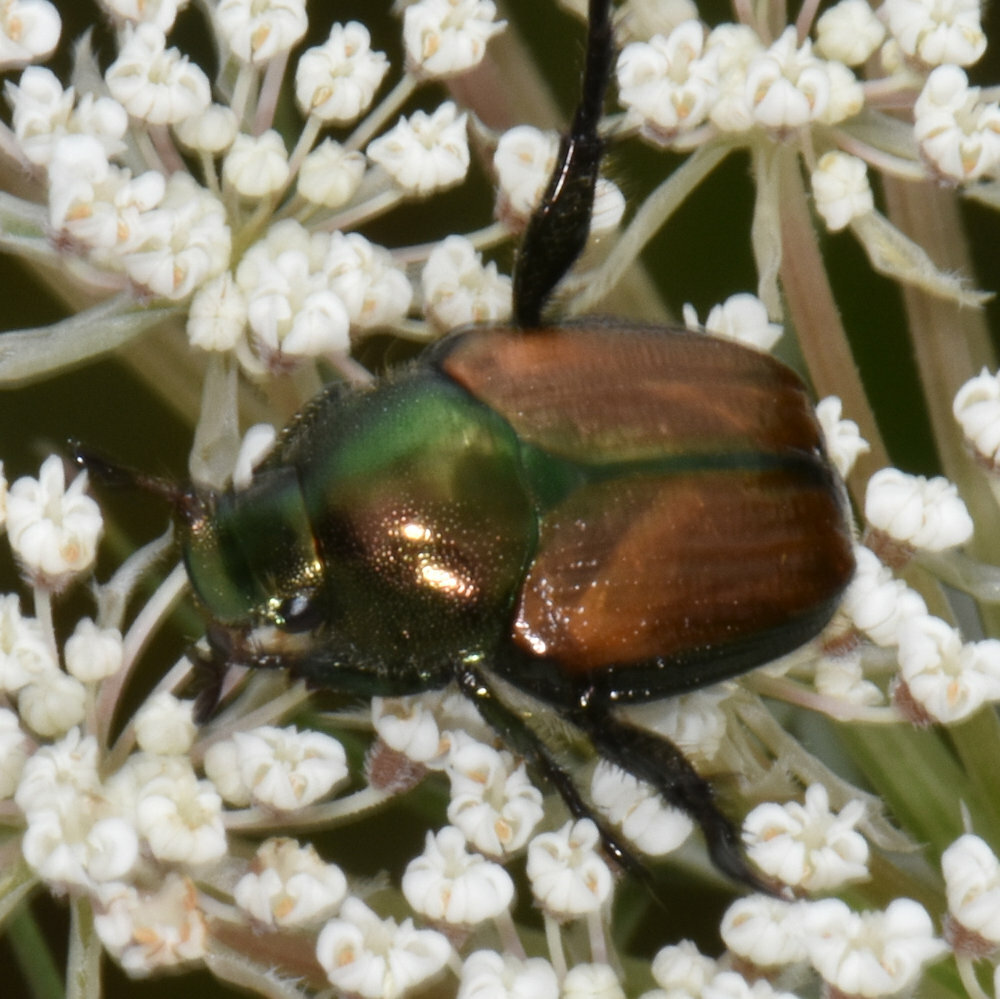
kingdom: Animalia
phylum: Arthropoda
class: Insecta
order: Coleoptera
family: Scarabaeidae
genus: Popillia
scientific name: Popillia japonica
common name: Japanese beetle
